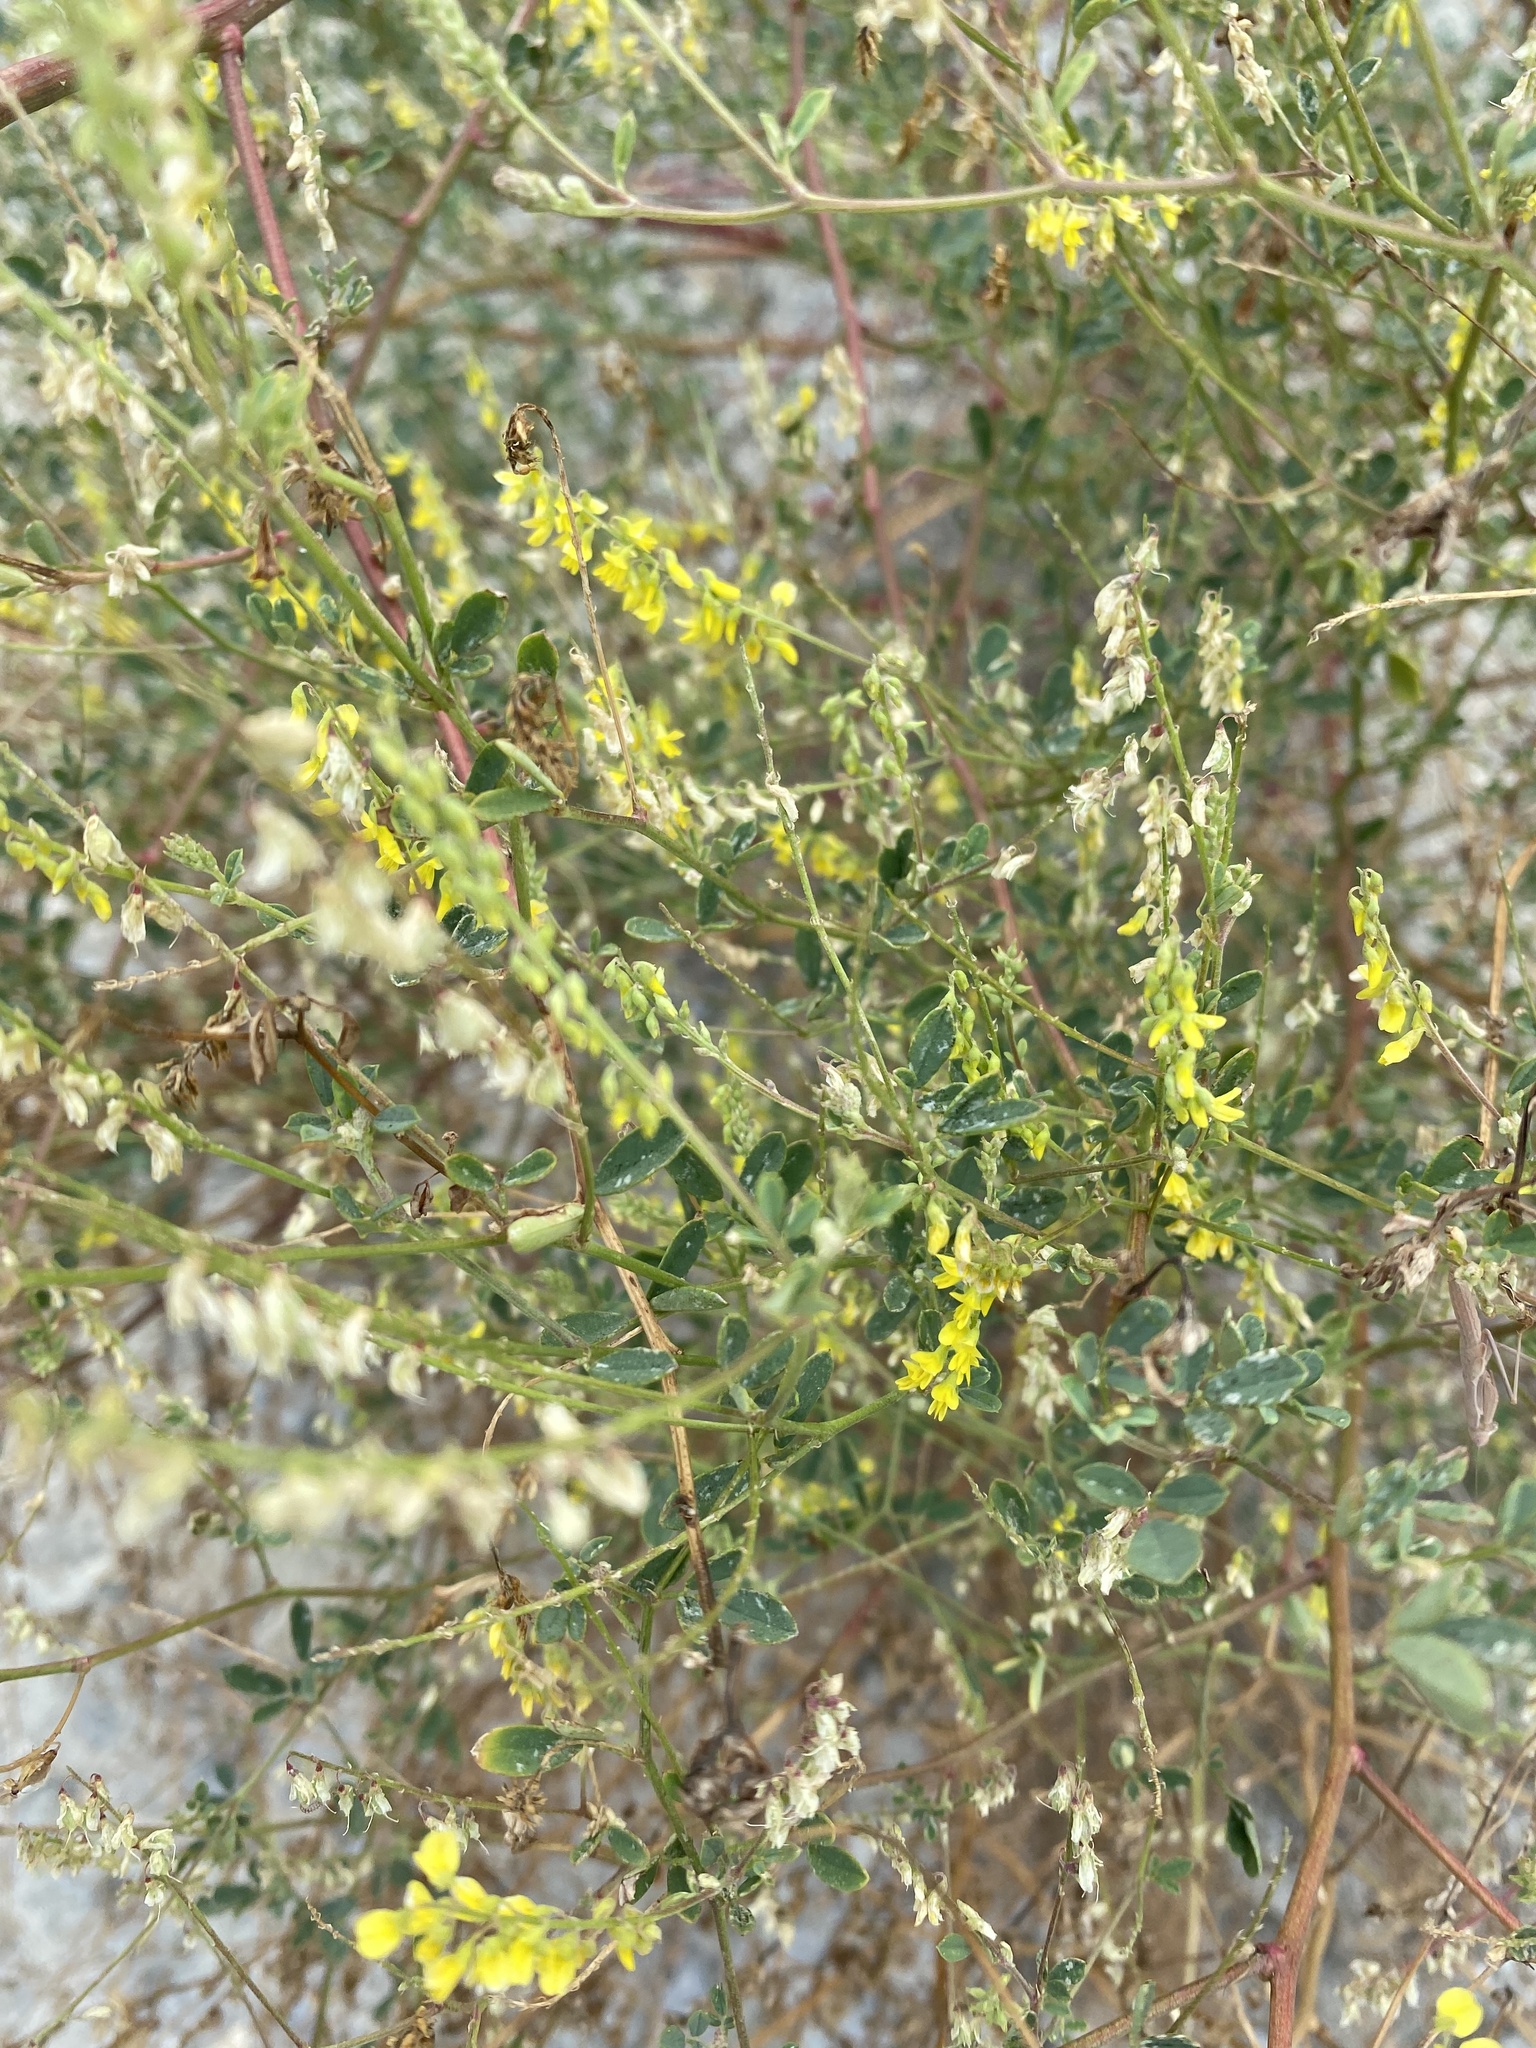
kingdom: Plantae
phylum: Tracheophyta
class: Magnoliopsida
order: Fabales
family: Fabaceae
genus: Melilotus
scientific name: Melilotus officinalis
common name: Sweetclover
